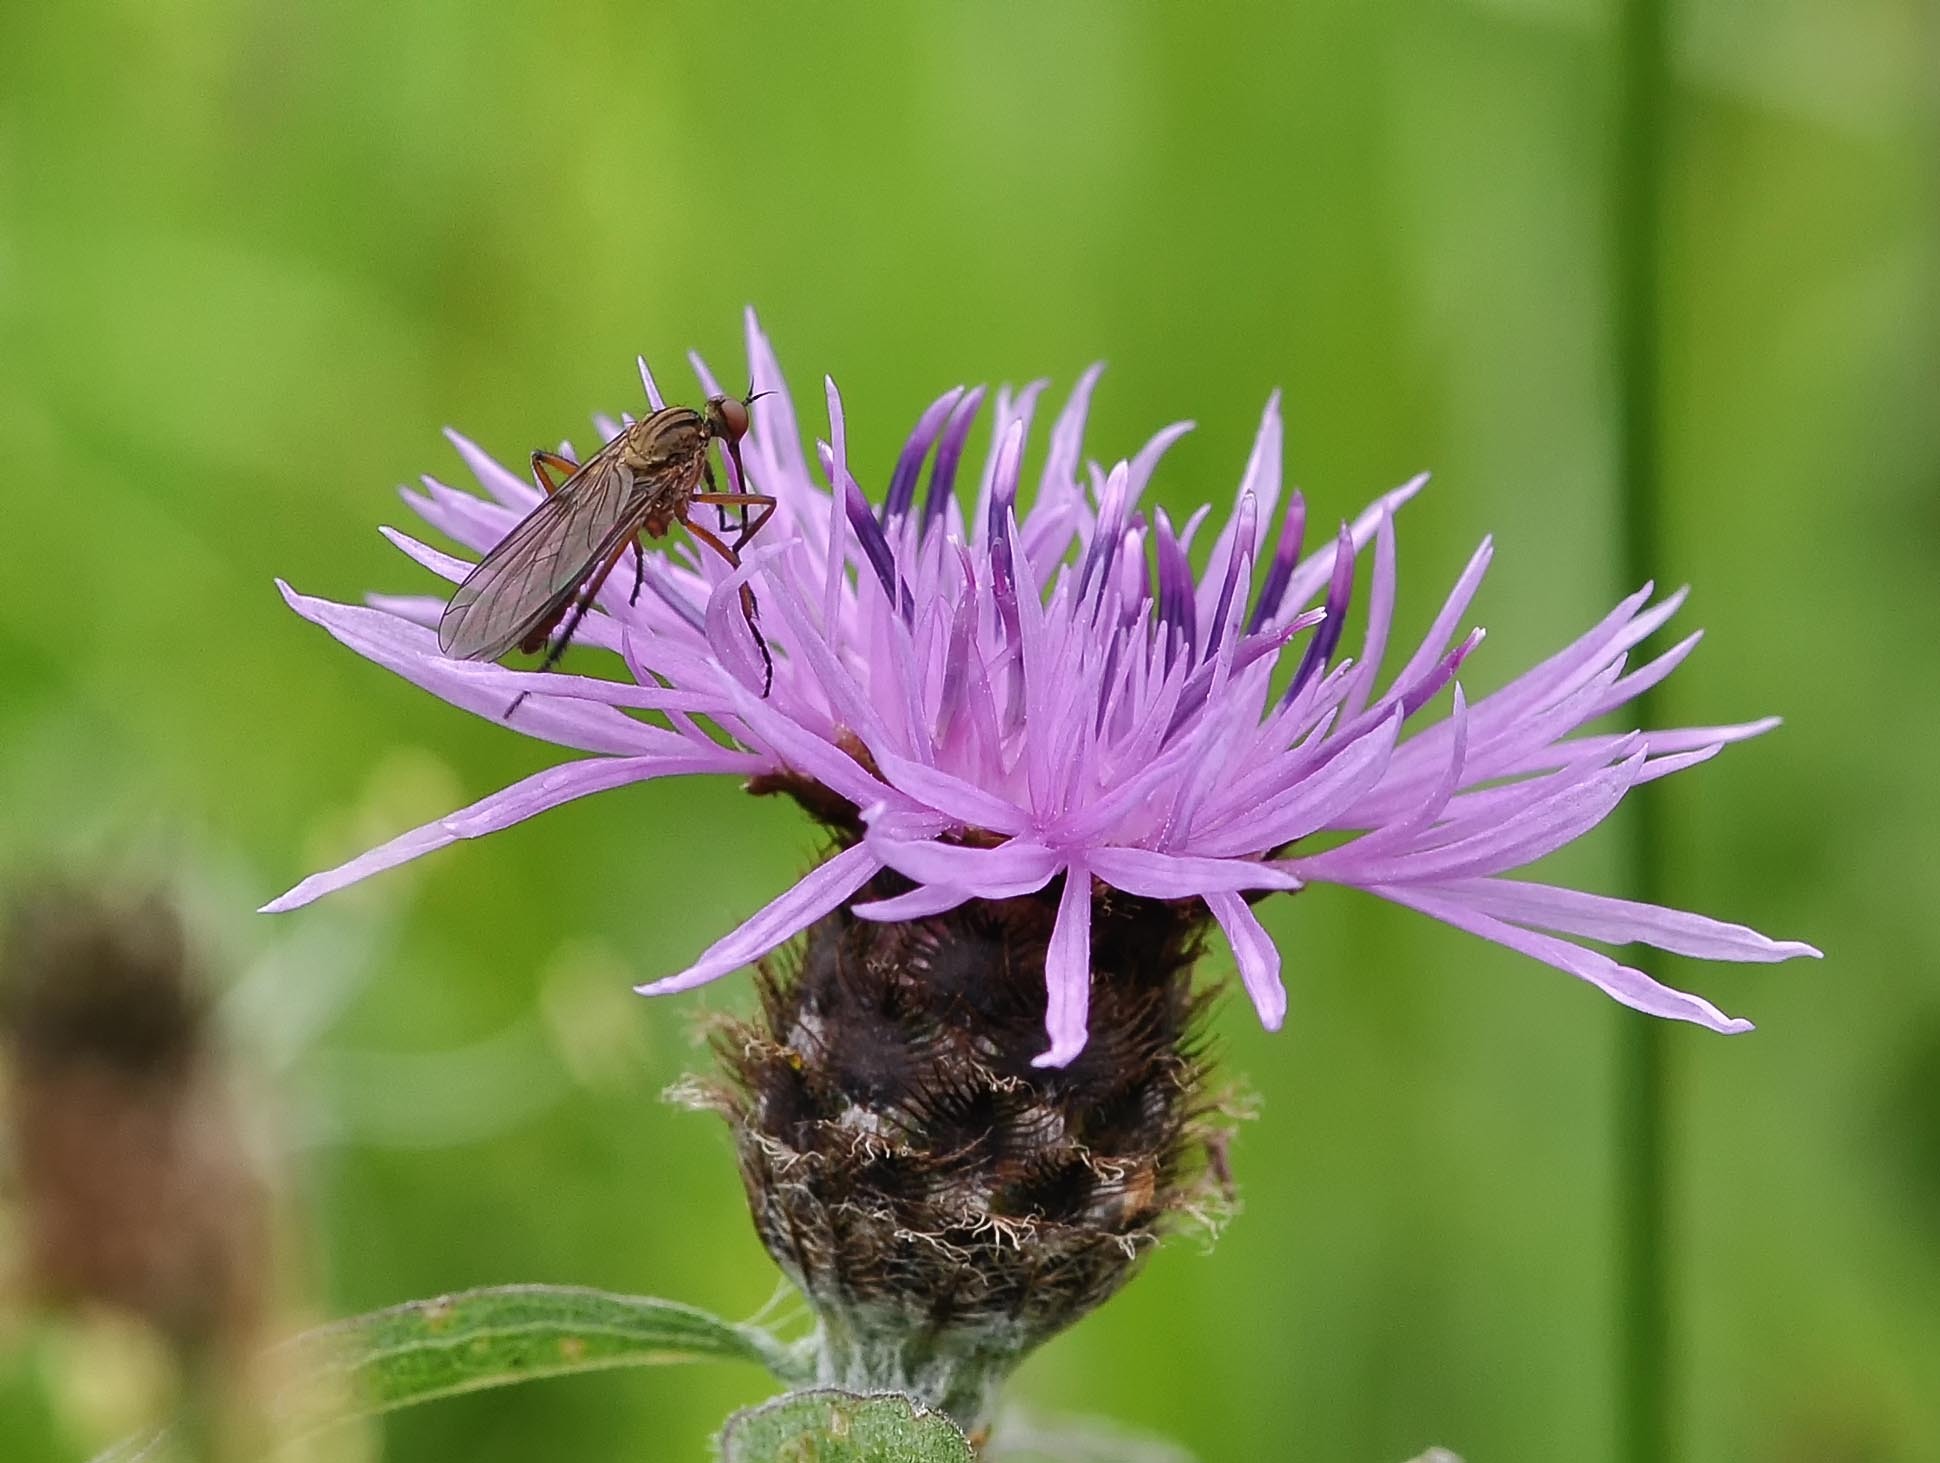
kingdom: Animalia
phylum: Arthropoda
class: Insecta
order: Diptera
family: Empididae
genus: Empis
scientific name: Empis livida
